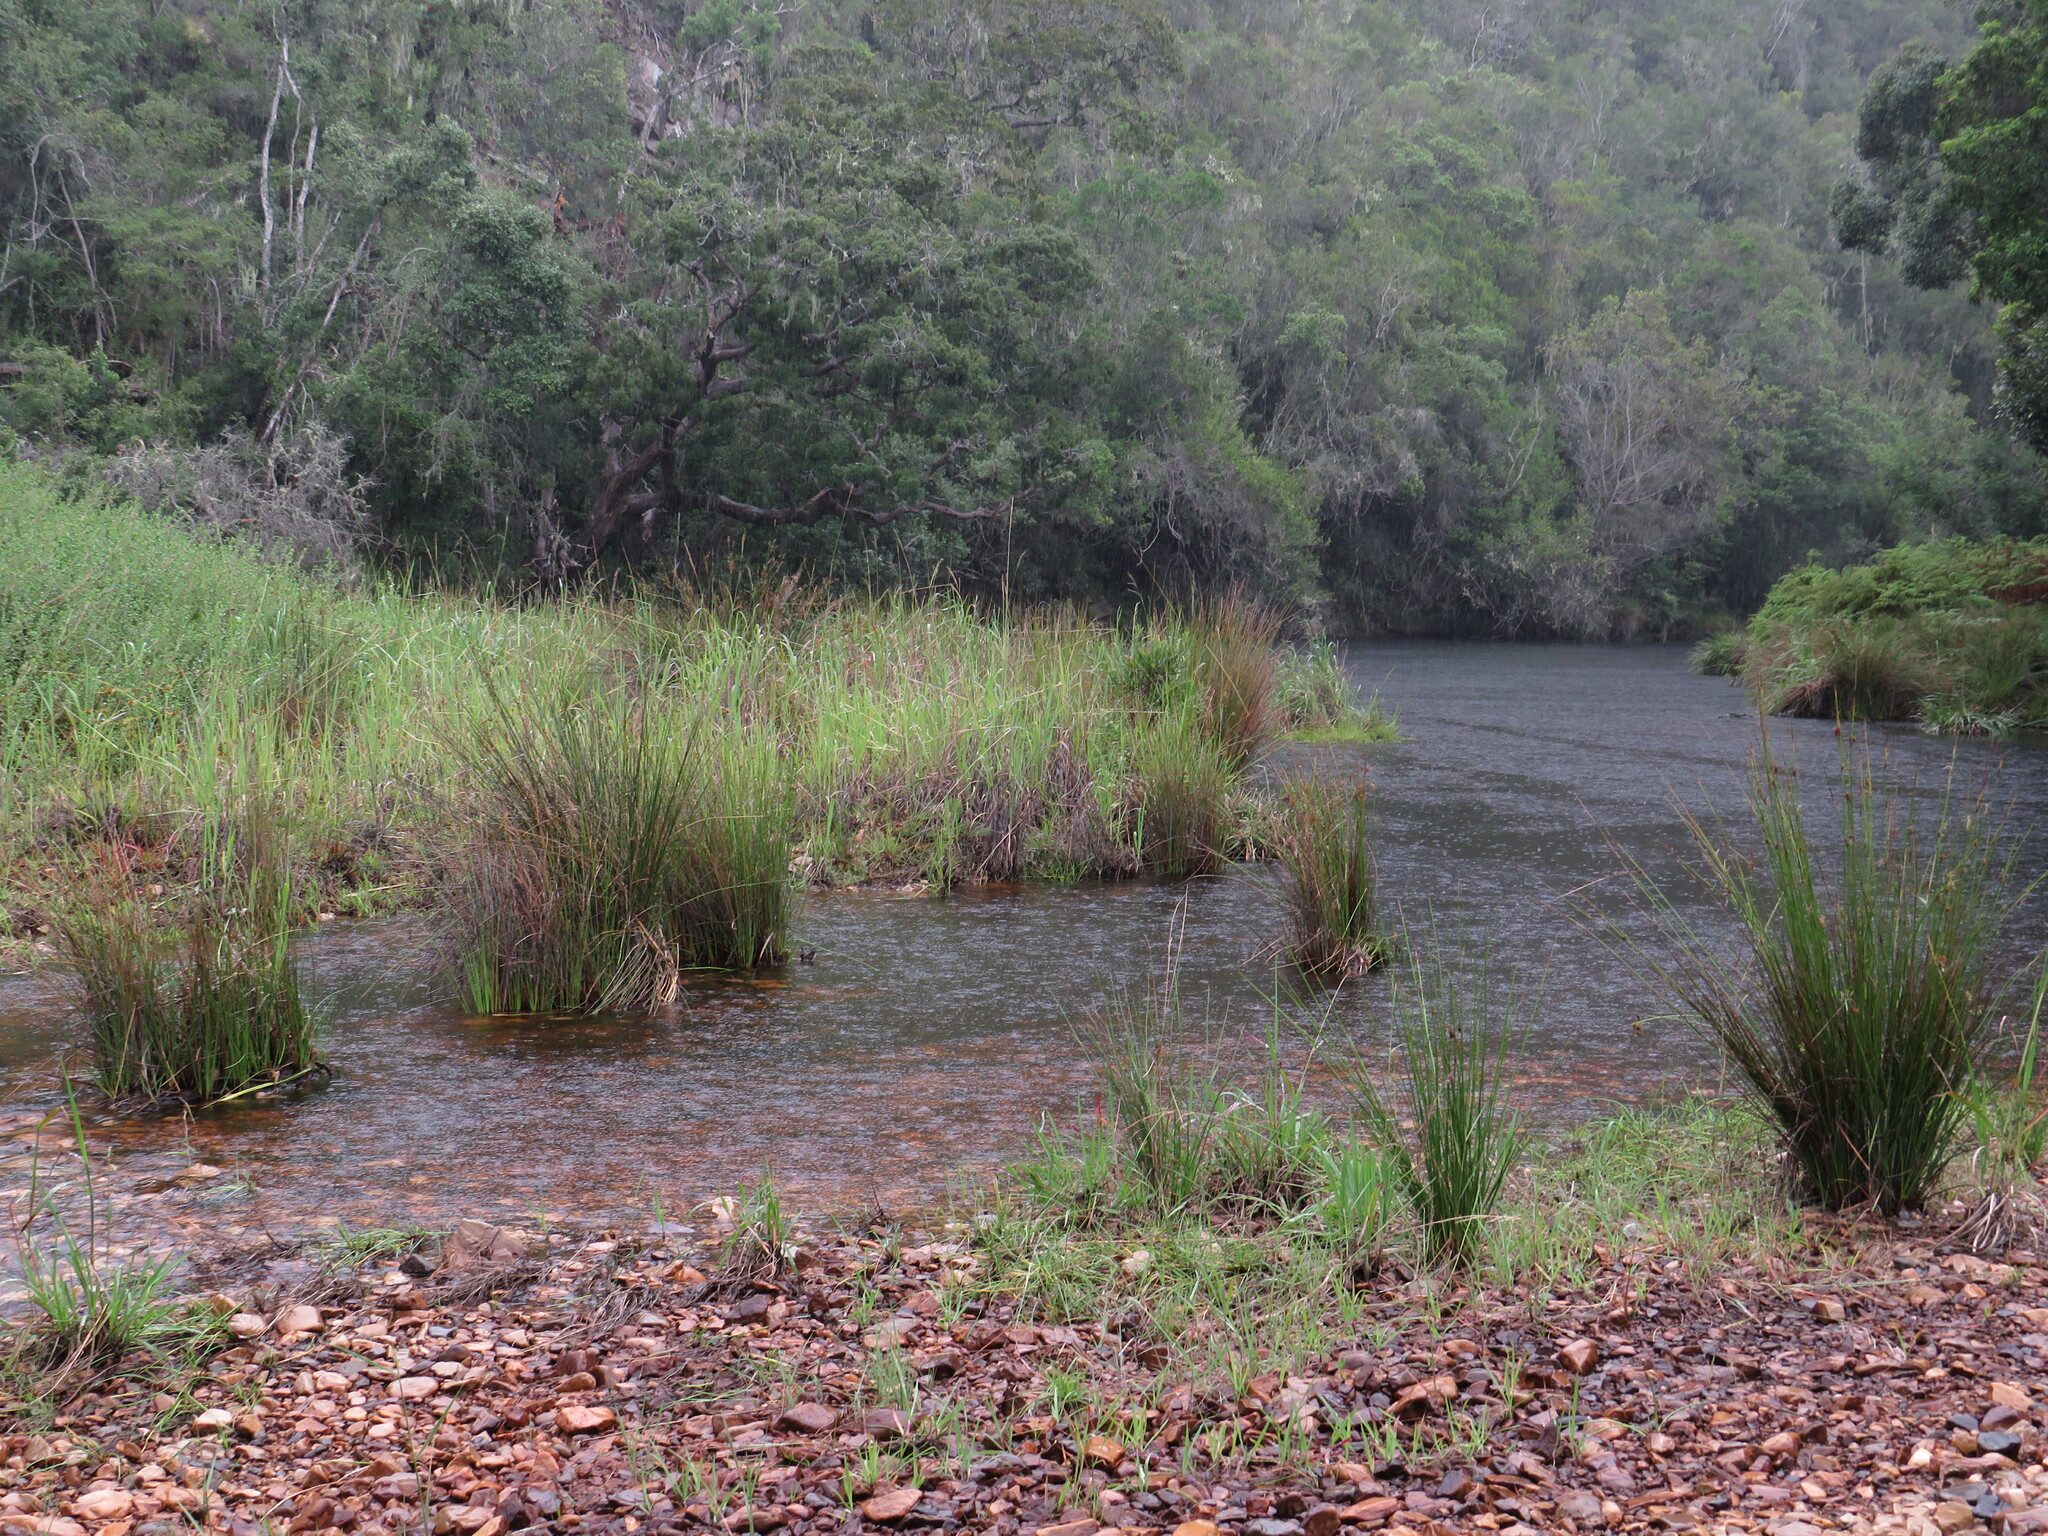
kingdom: Plantae
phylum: Tracheophyta
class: Pinopsida
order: Pinales
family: Podocarpaceae
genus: Afrocarpus
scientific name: Afrocarpus falcatus
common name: Bastard yellowwood
